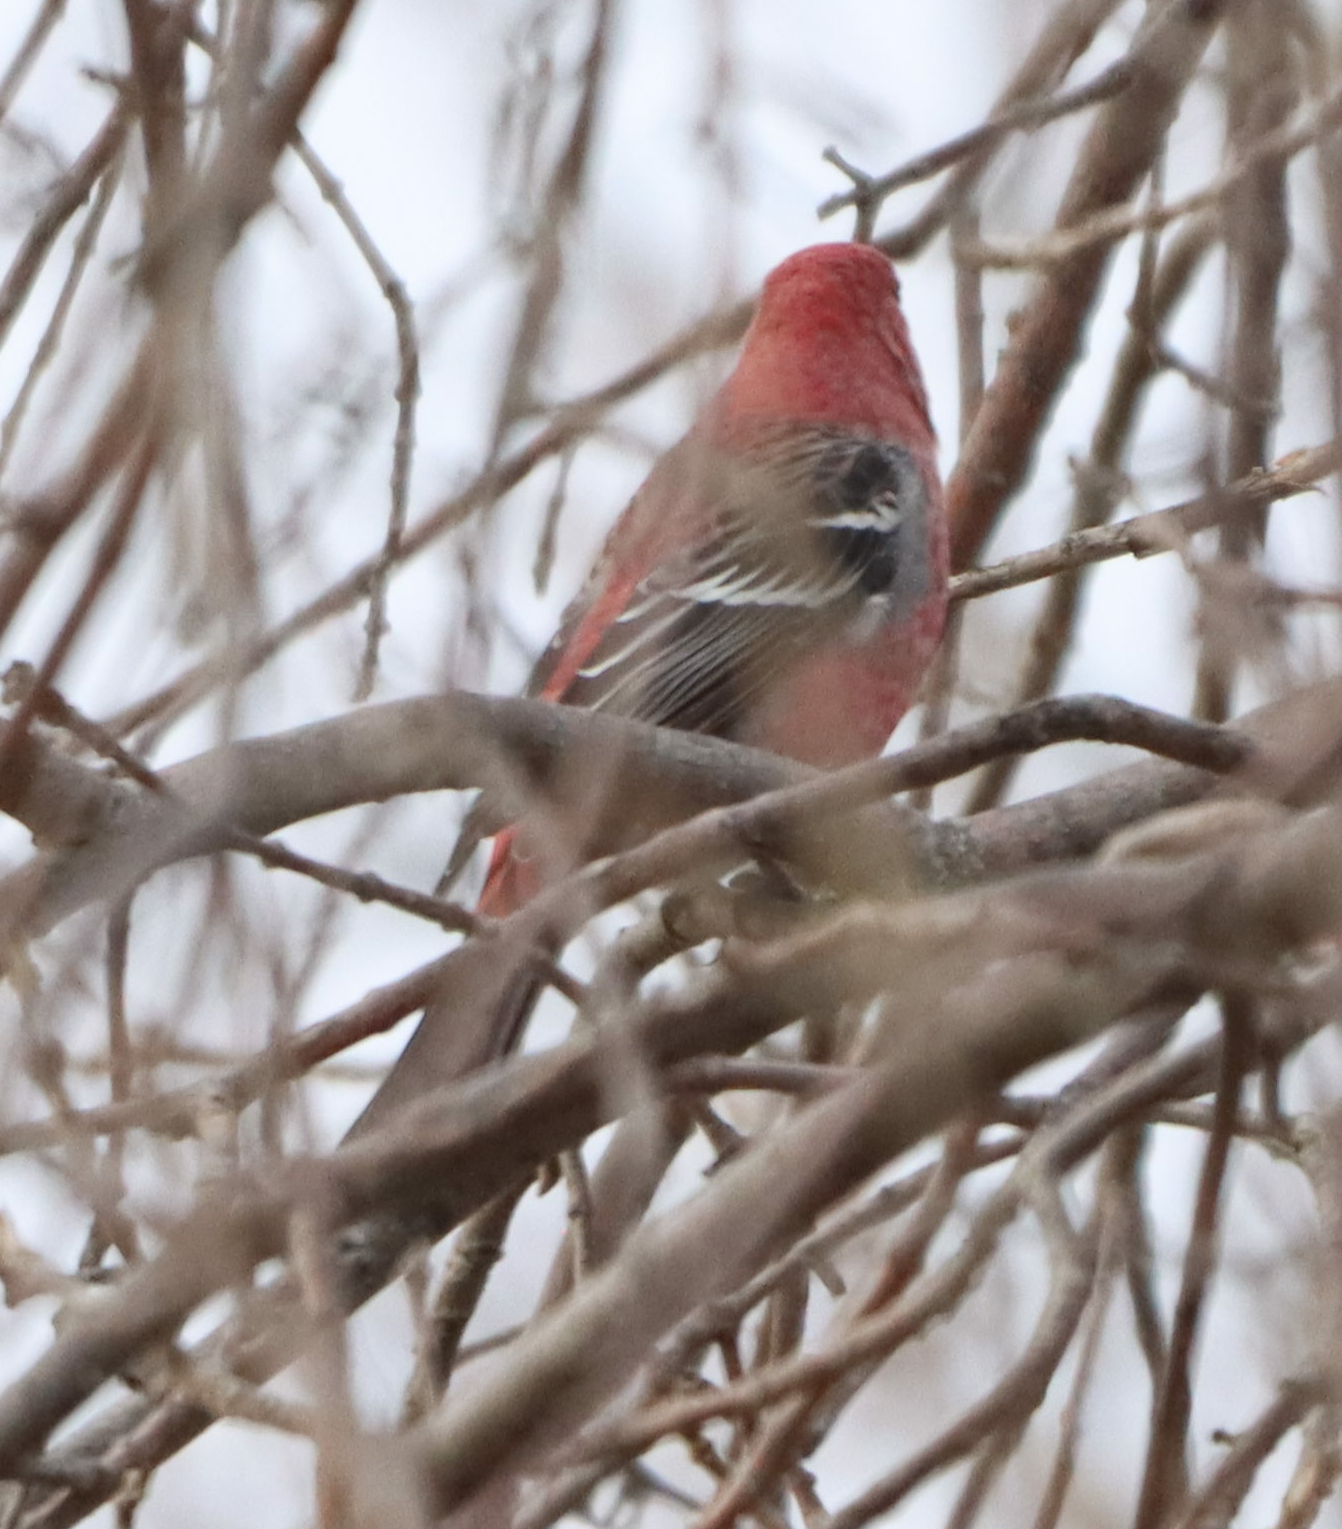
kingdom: Animalia
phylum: Chordata
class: Aves
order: Passeriformes
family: Fringillidae
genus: Pinicola
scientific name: Pinicola enucleator
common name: Pine grosbeak
